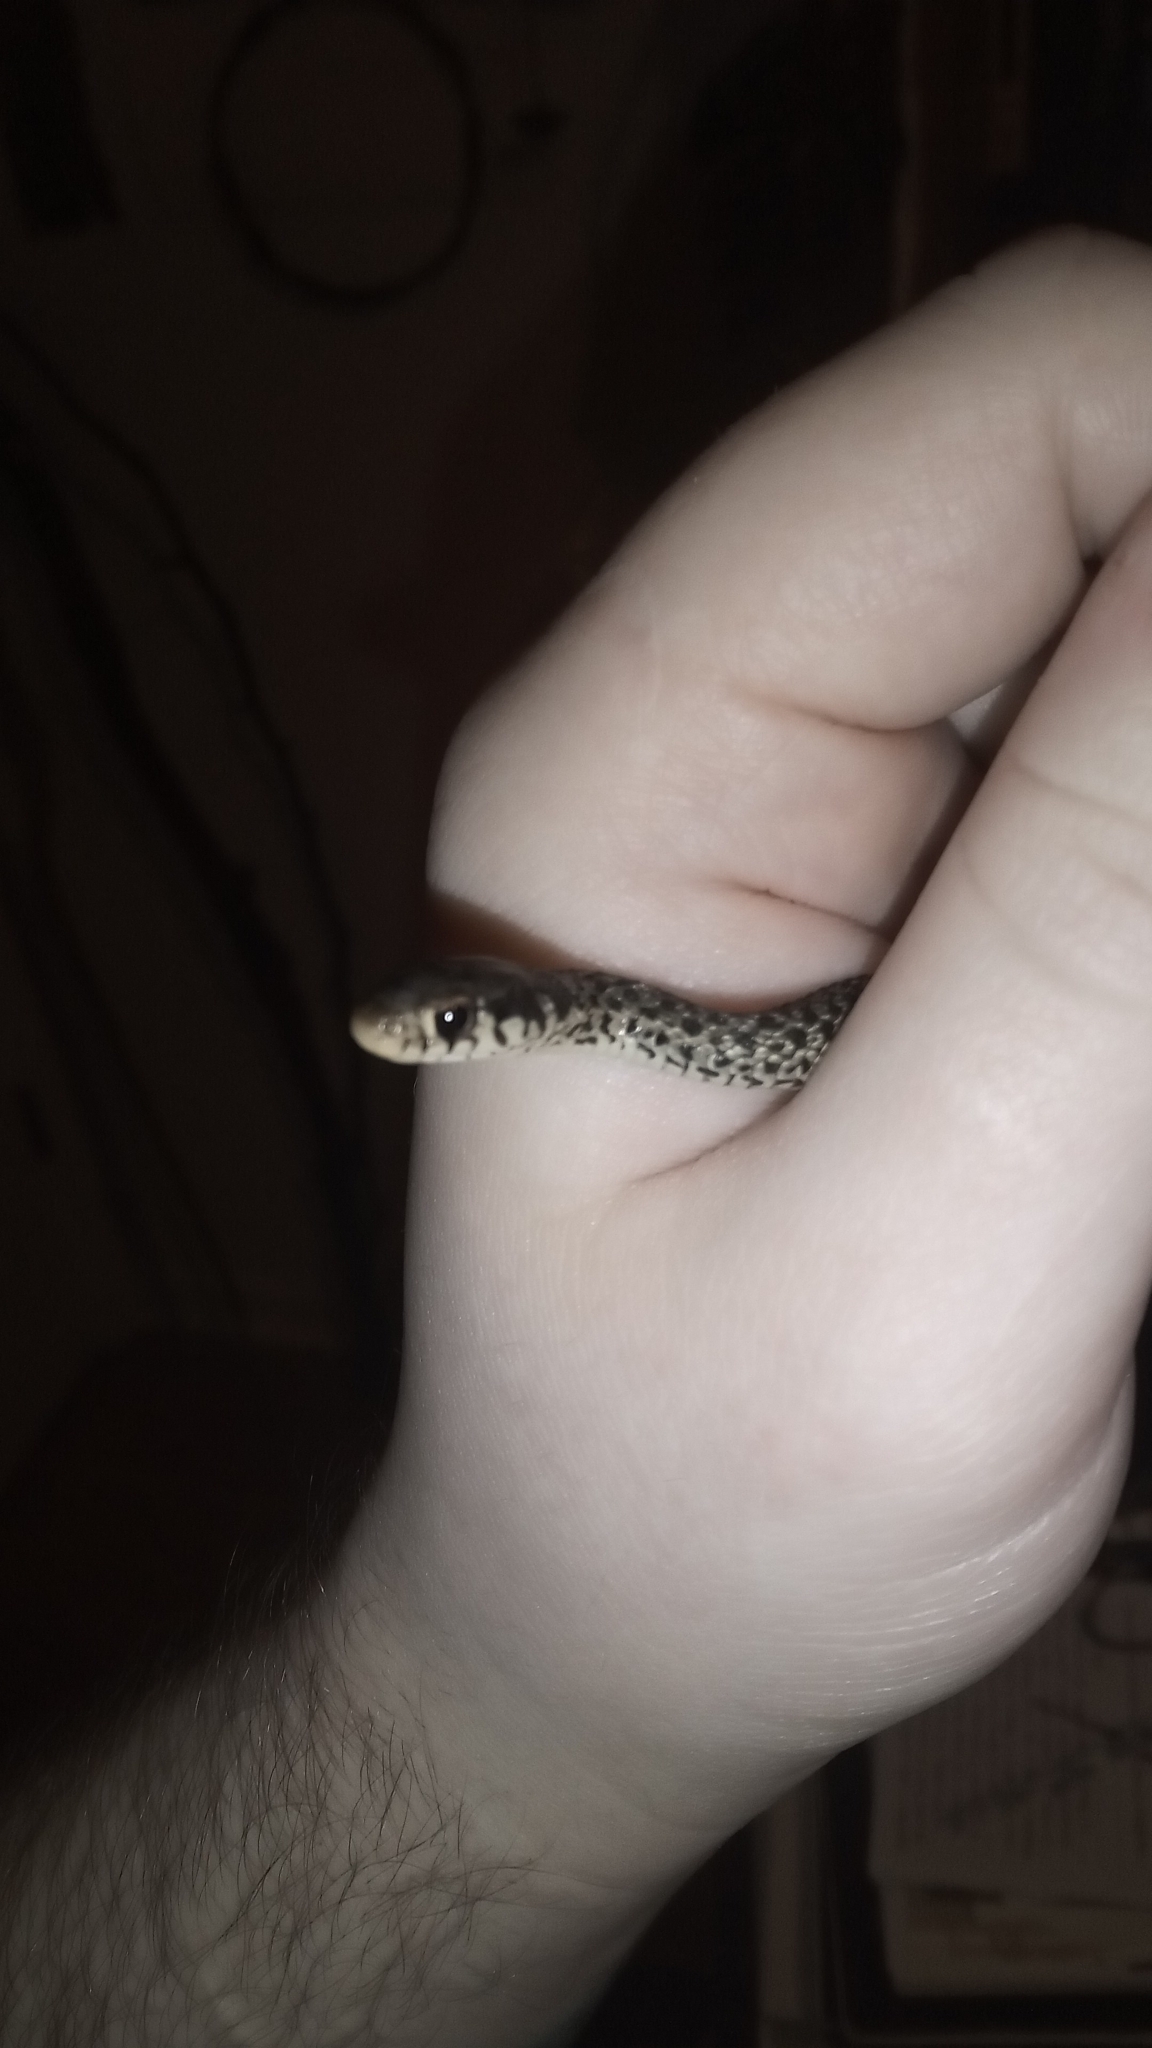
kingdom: Animalia
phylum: Chordata
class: Squamata
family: Colubridae
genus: Thamnophis
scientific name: Thamnophis sirtalis
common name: Common garter snake
